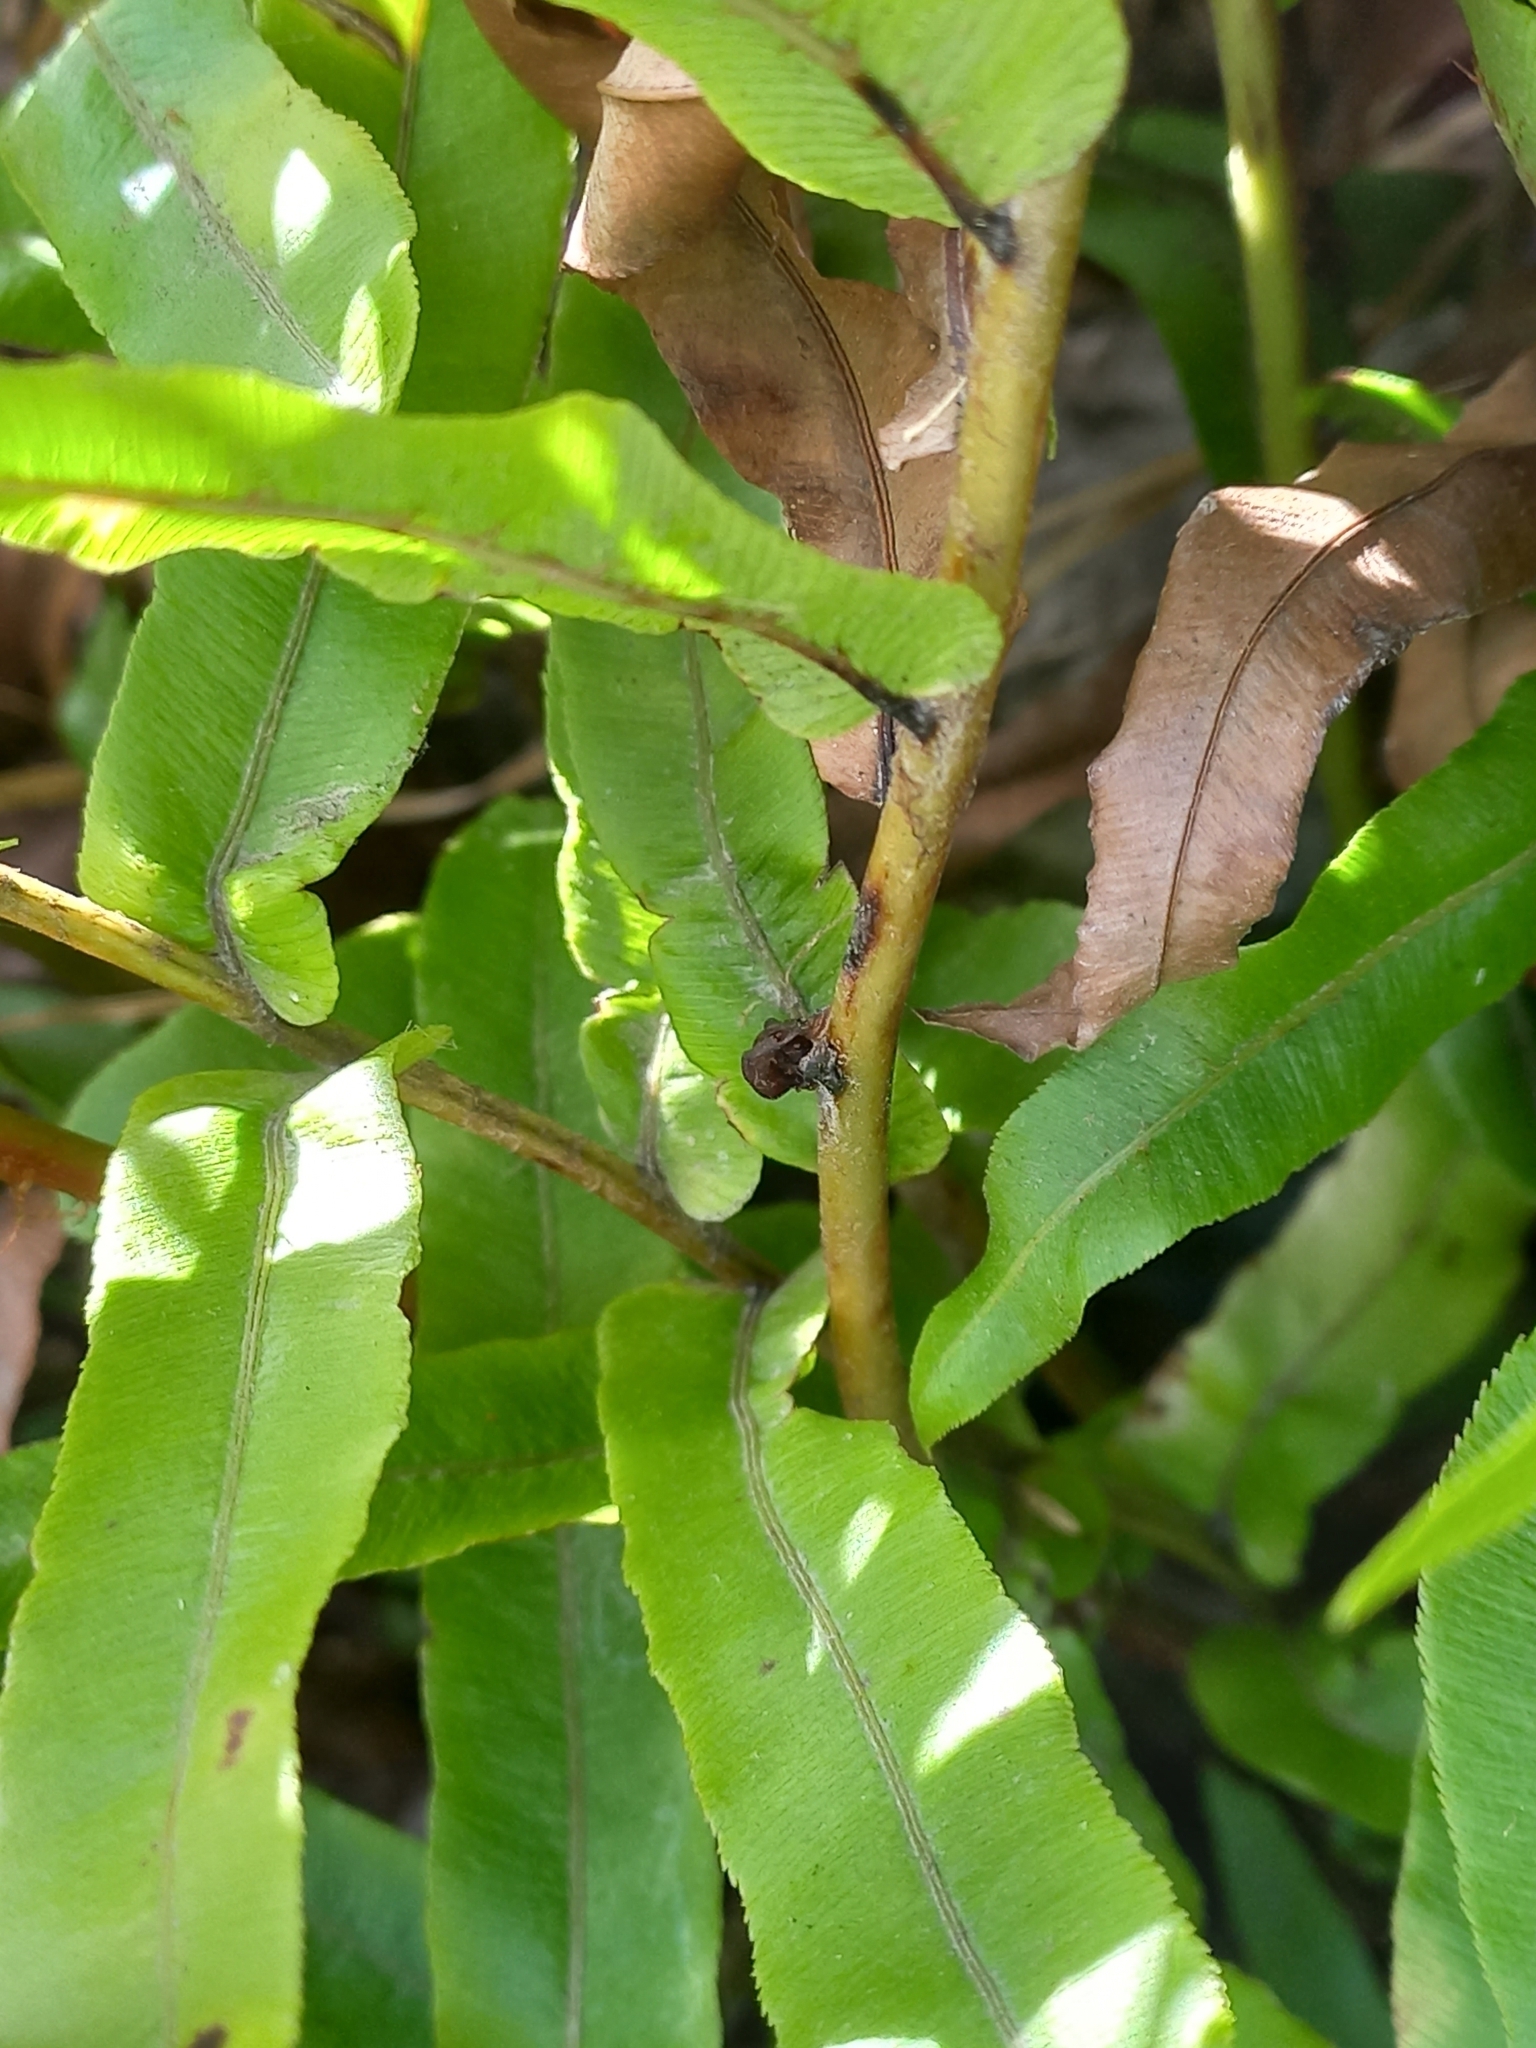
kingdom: Plantae
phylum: Tracheophyta
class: Polypodiopsida
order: Polypodiales
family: Blechnaceae
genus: Parablechnum
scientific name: Parablechnum novae-zelandiae
